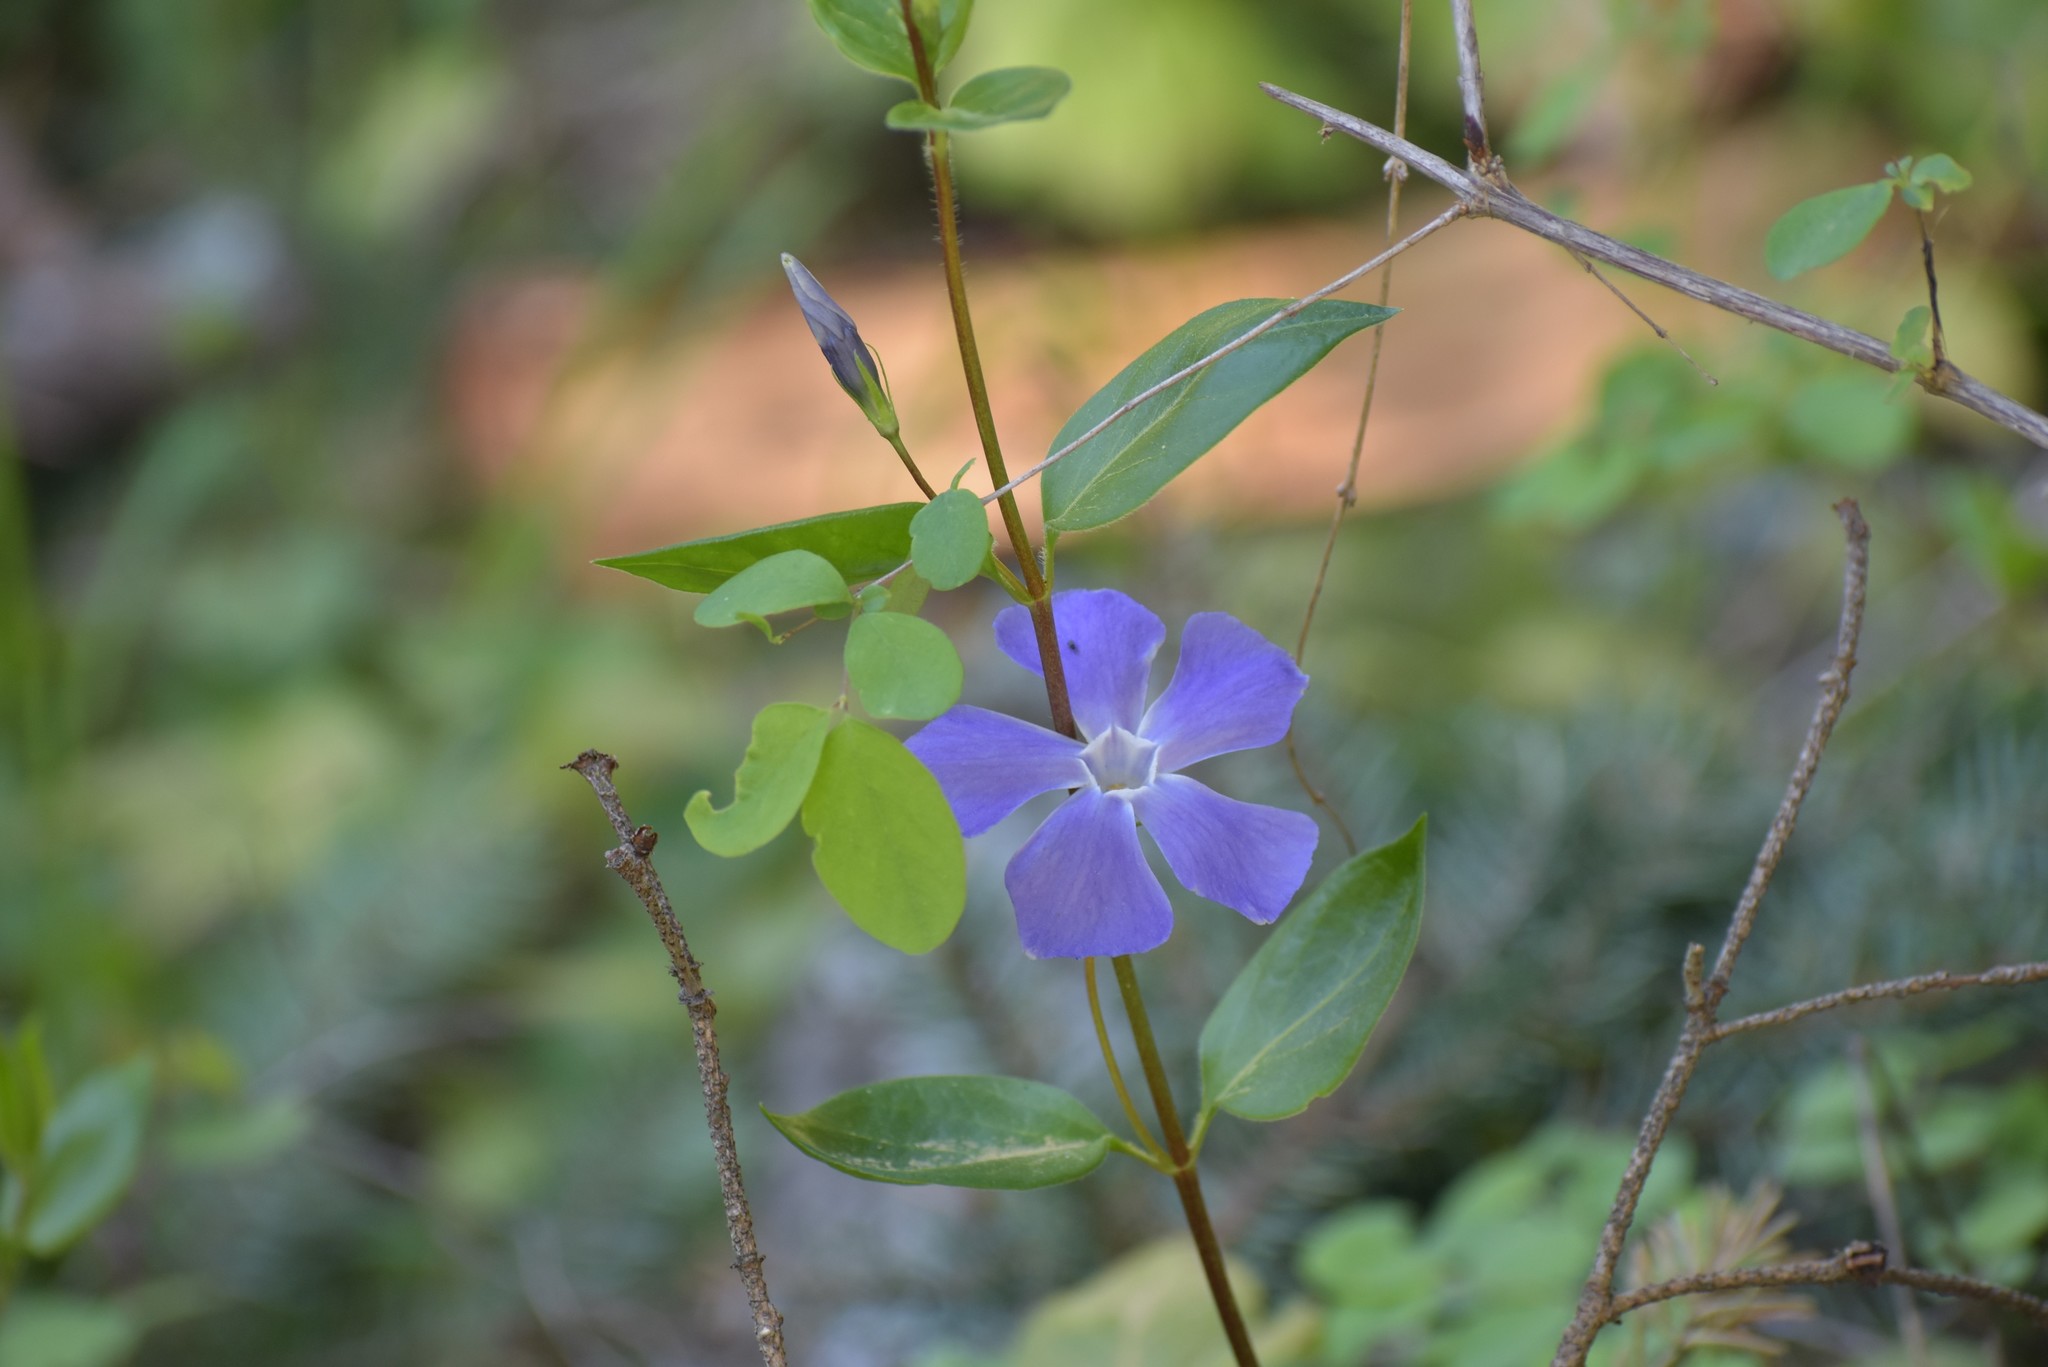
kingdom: Plantae
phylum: Tracheophyta
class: Magnoliopsida
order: Gentianales
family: Apocynaceae
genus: Vinca
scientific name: Vinca minor
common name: Lesser periwinkle
